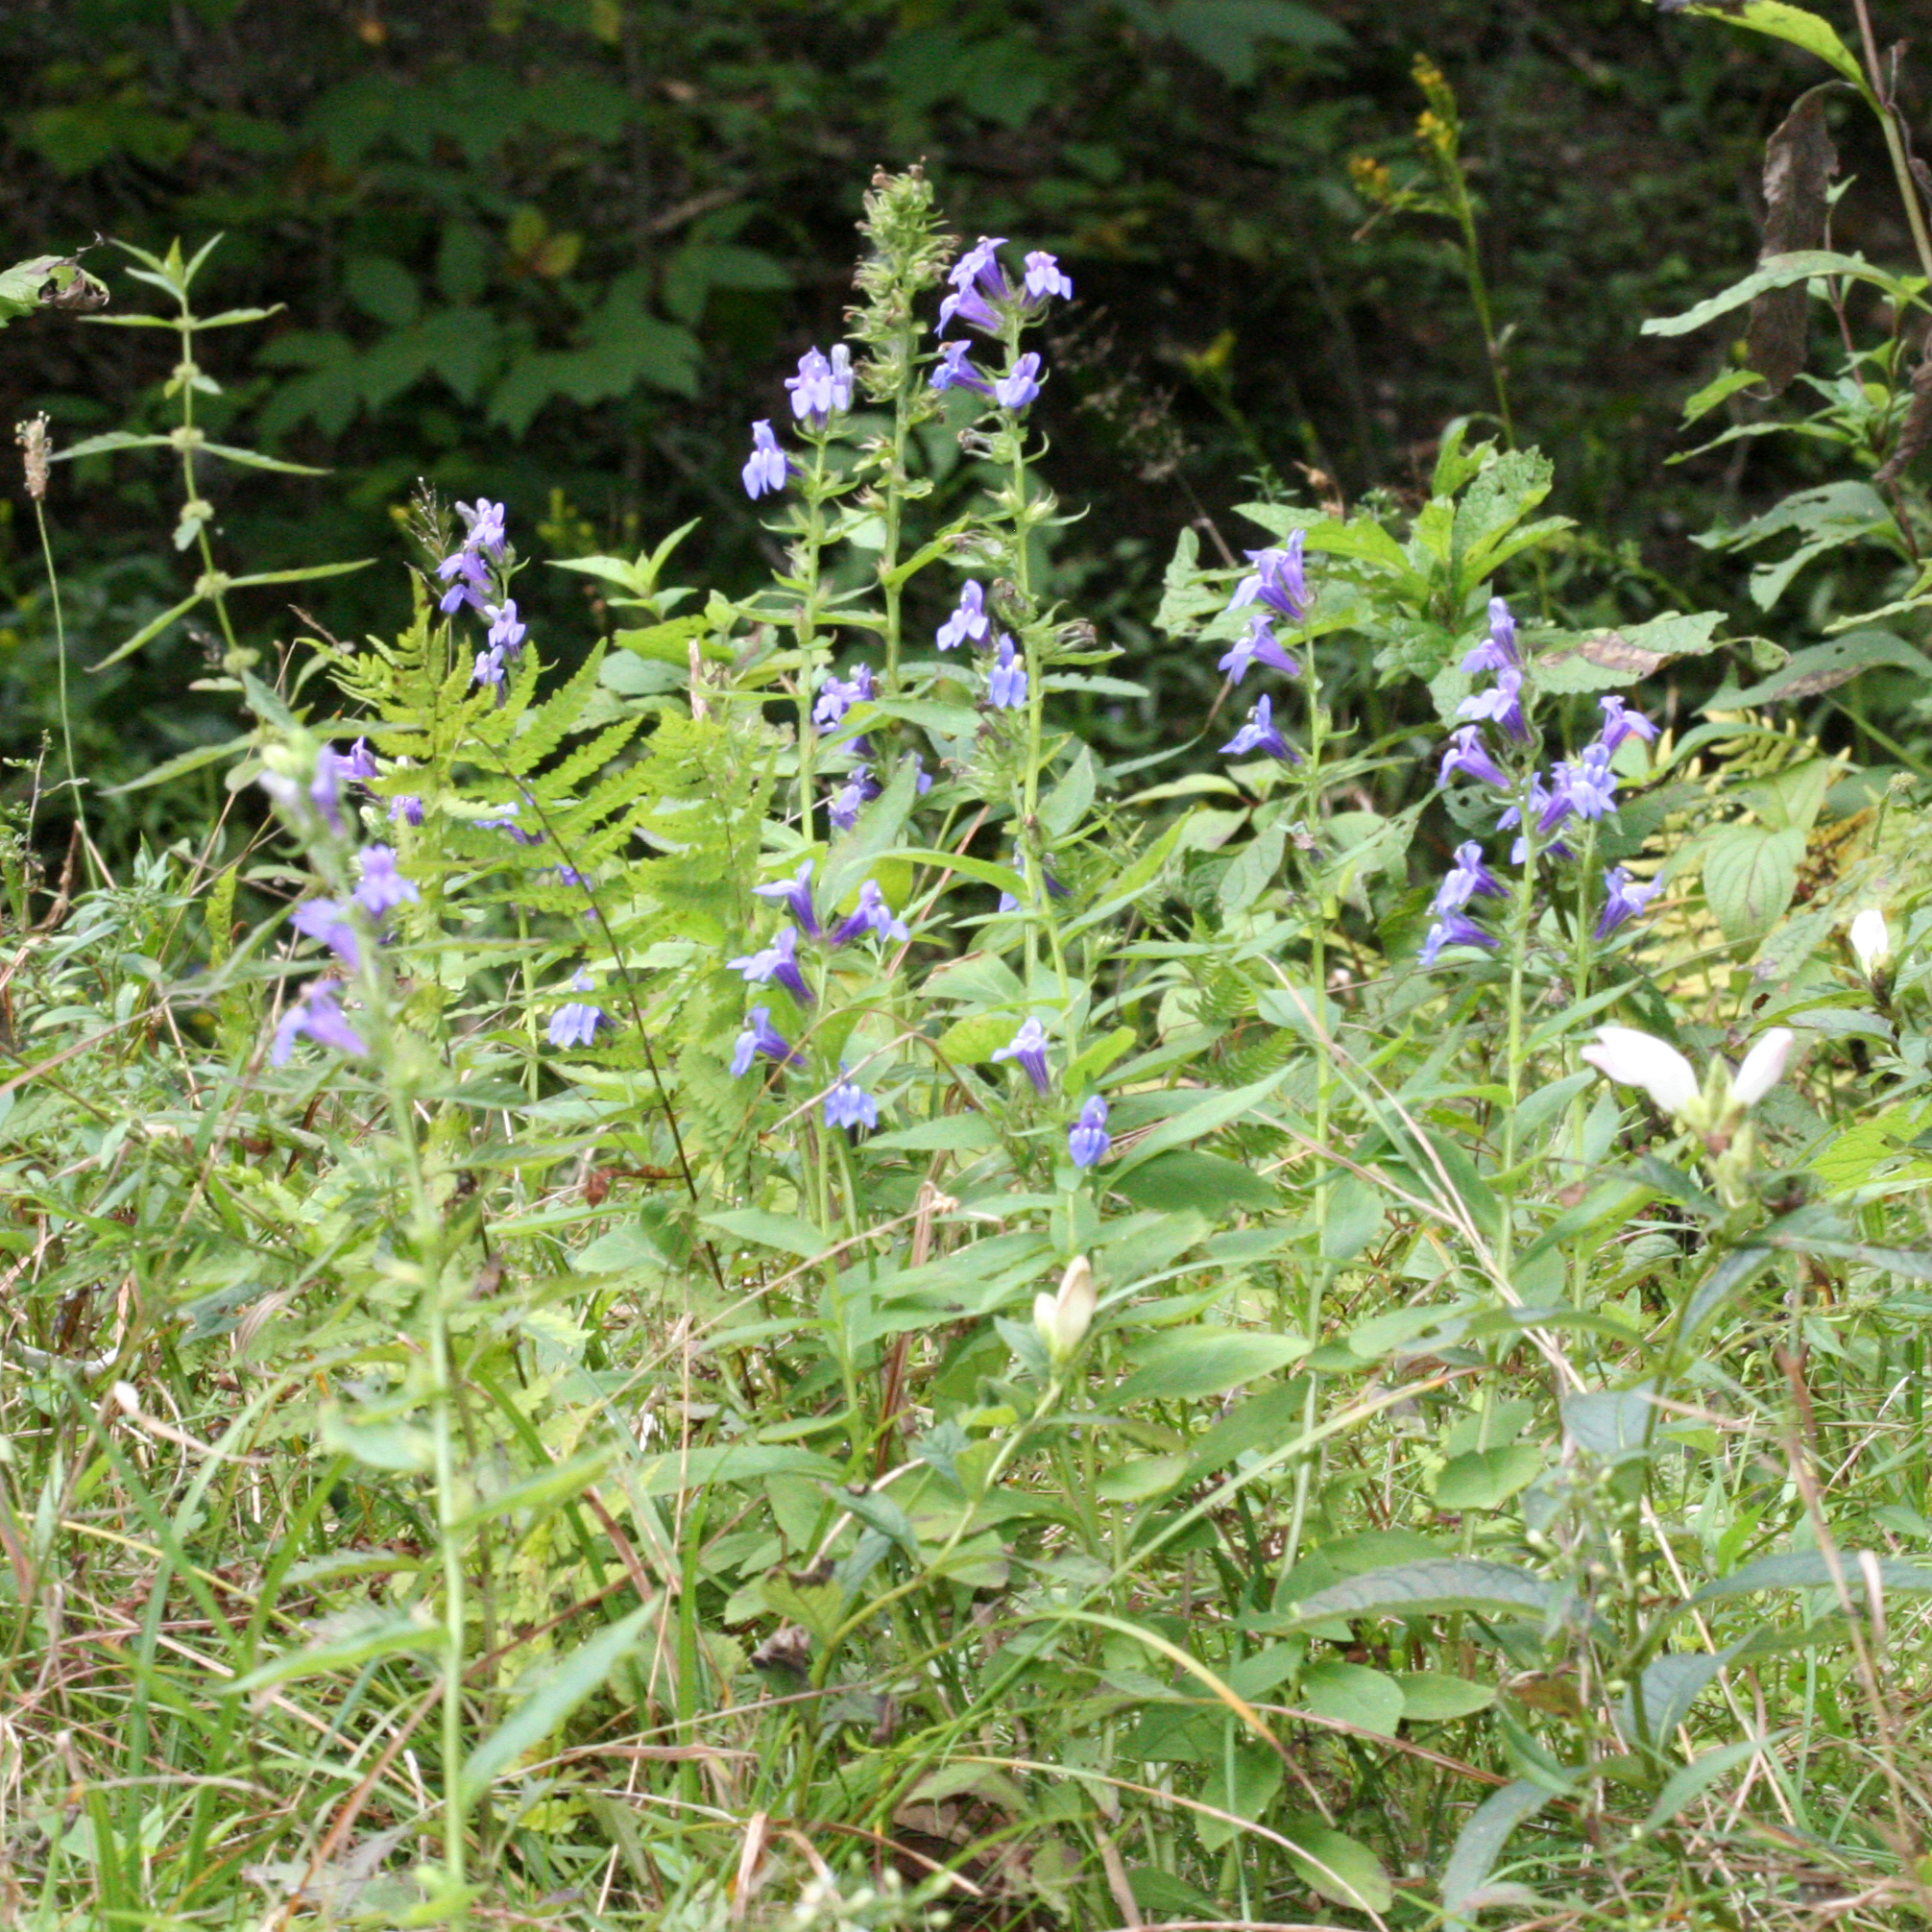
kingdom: Plantae
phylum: Tracheophyta
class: Magnoliopsida
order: Asterales
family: Campanulaceae
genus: Lobelia
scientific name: Lobelia siphilitica
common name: Great lobelia
